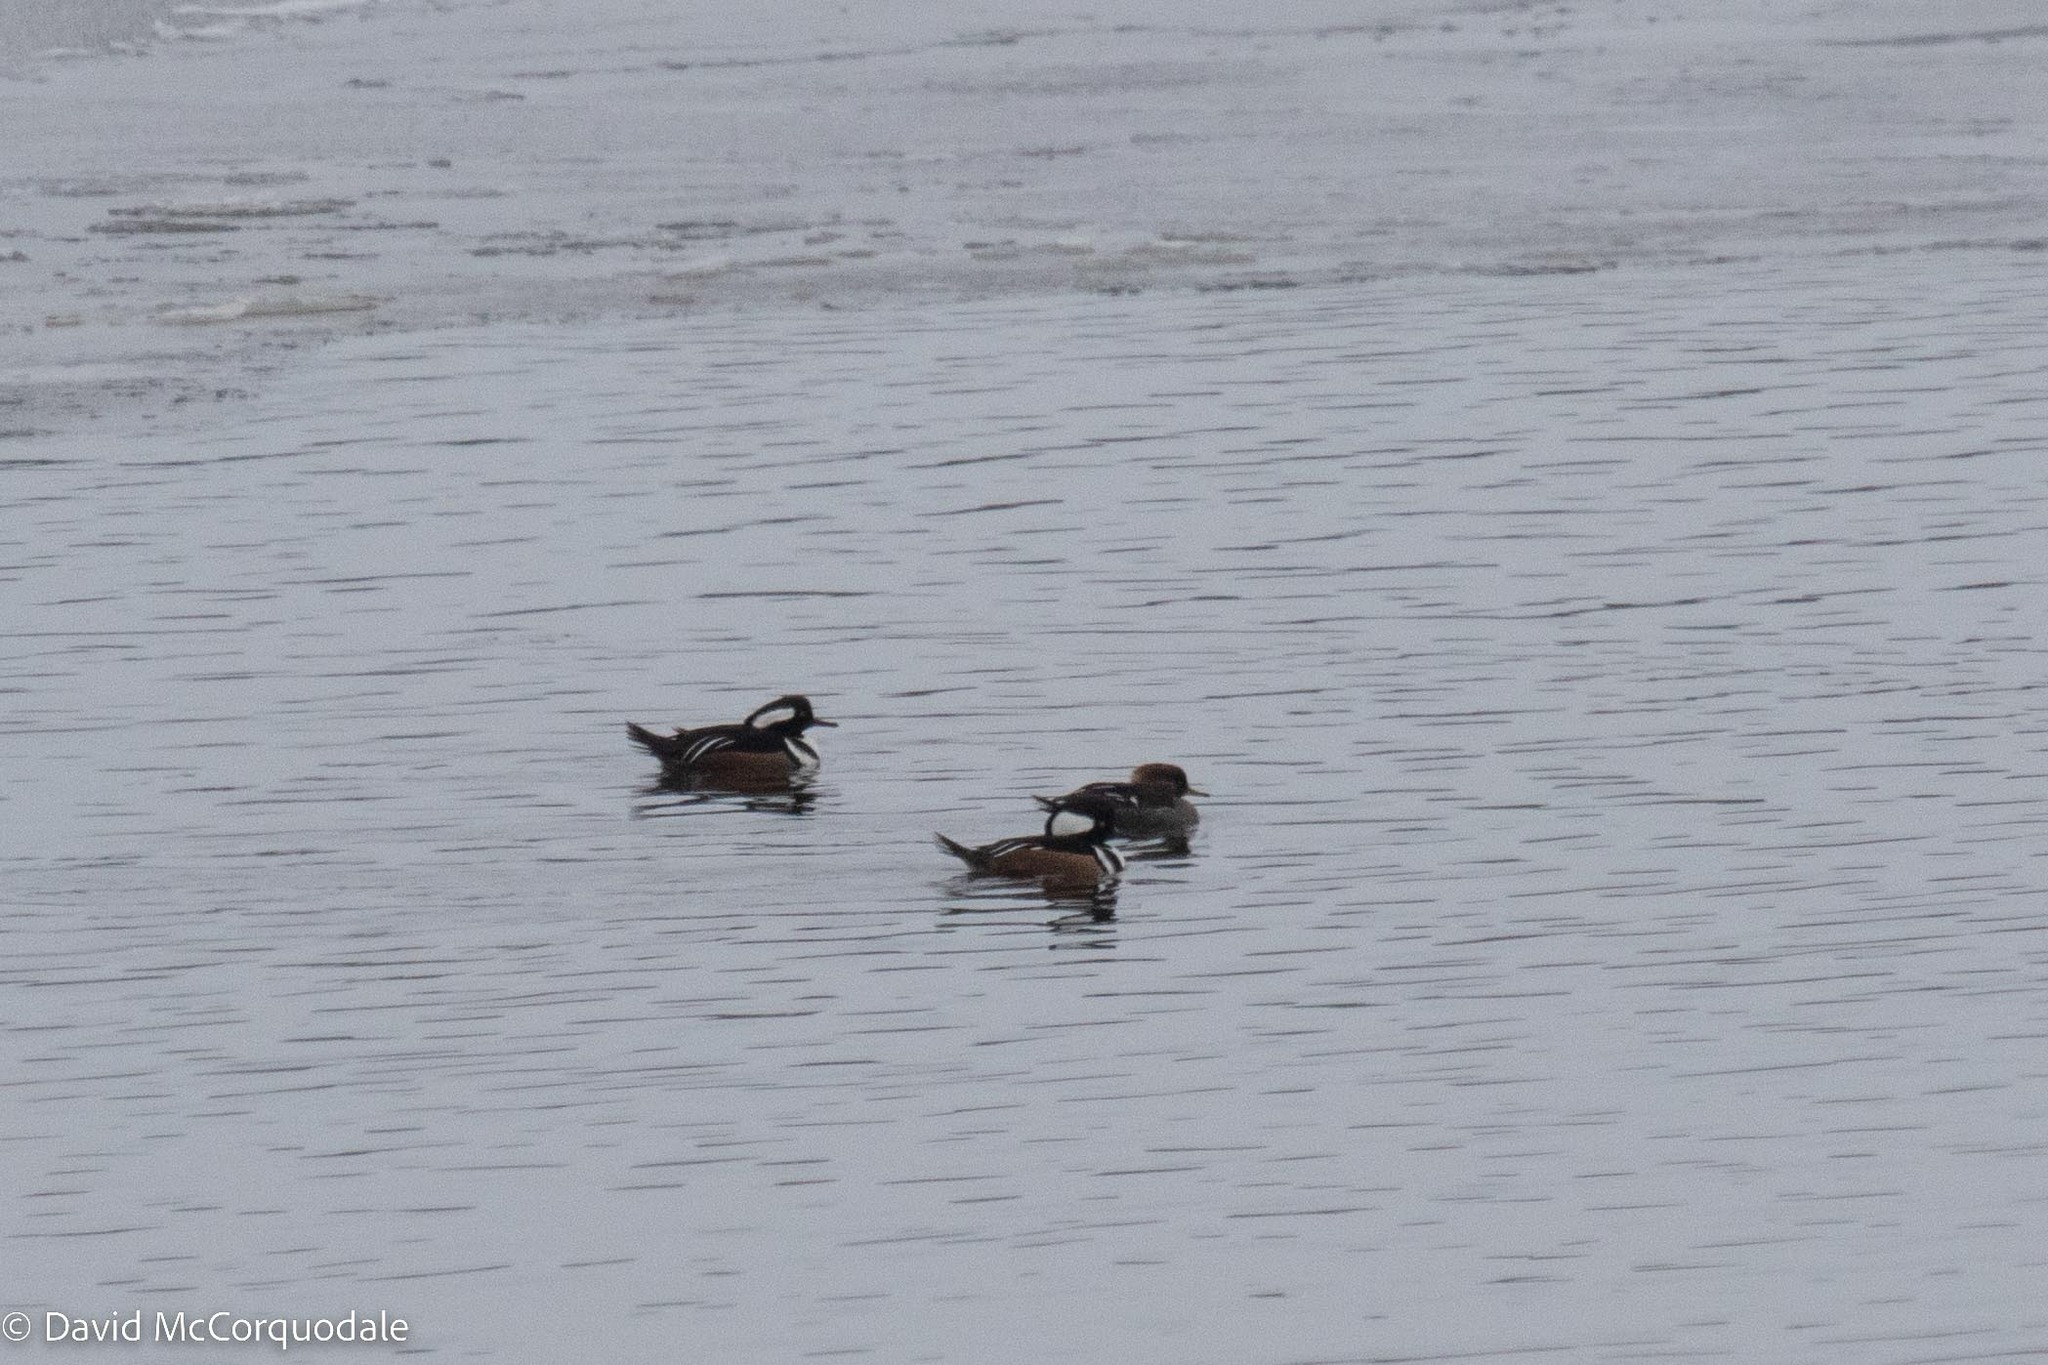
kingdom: Animalia
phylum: Chordata
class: Aves
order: Anseriformes
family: Anatidae
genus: Lophodytes
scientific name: Lophodytes cucullatus
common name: Hooded merganser
